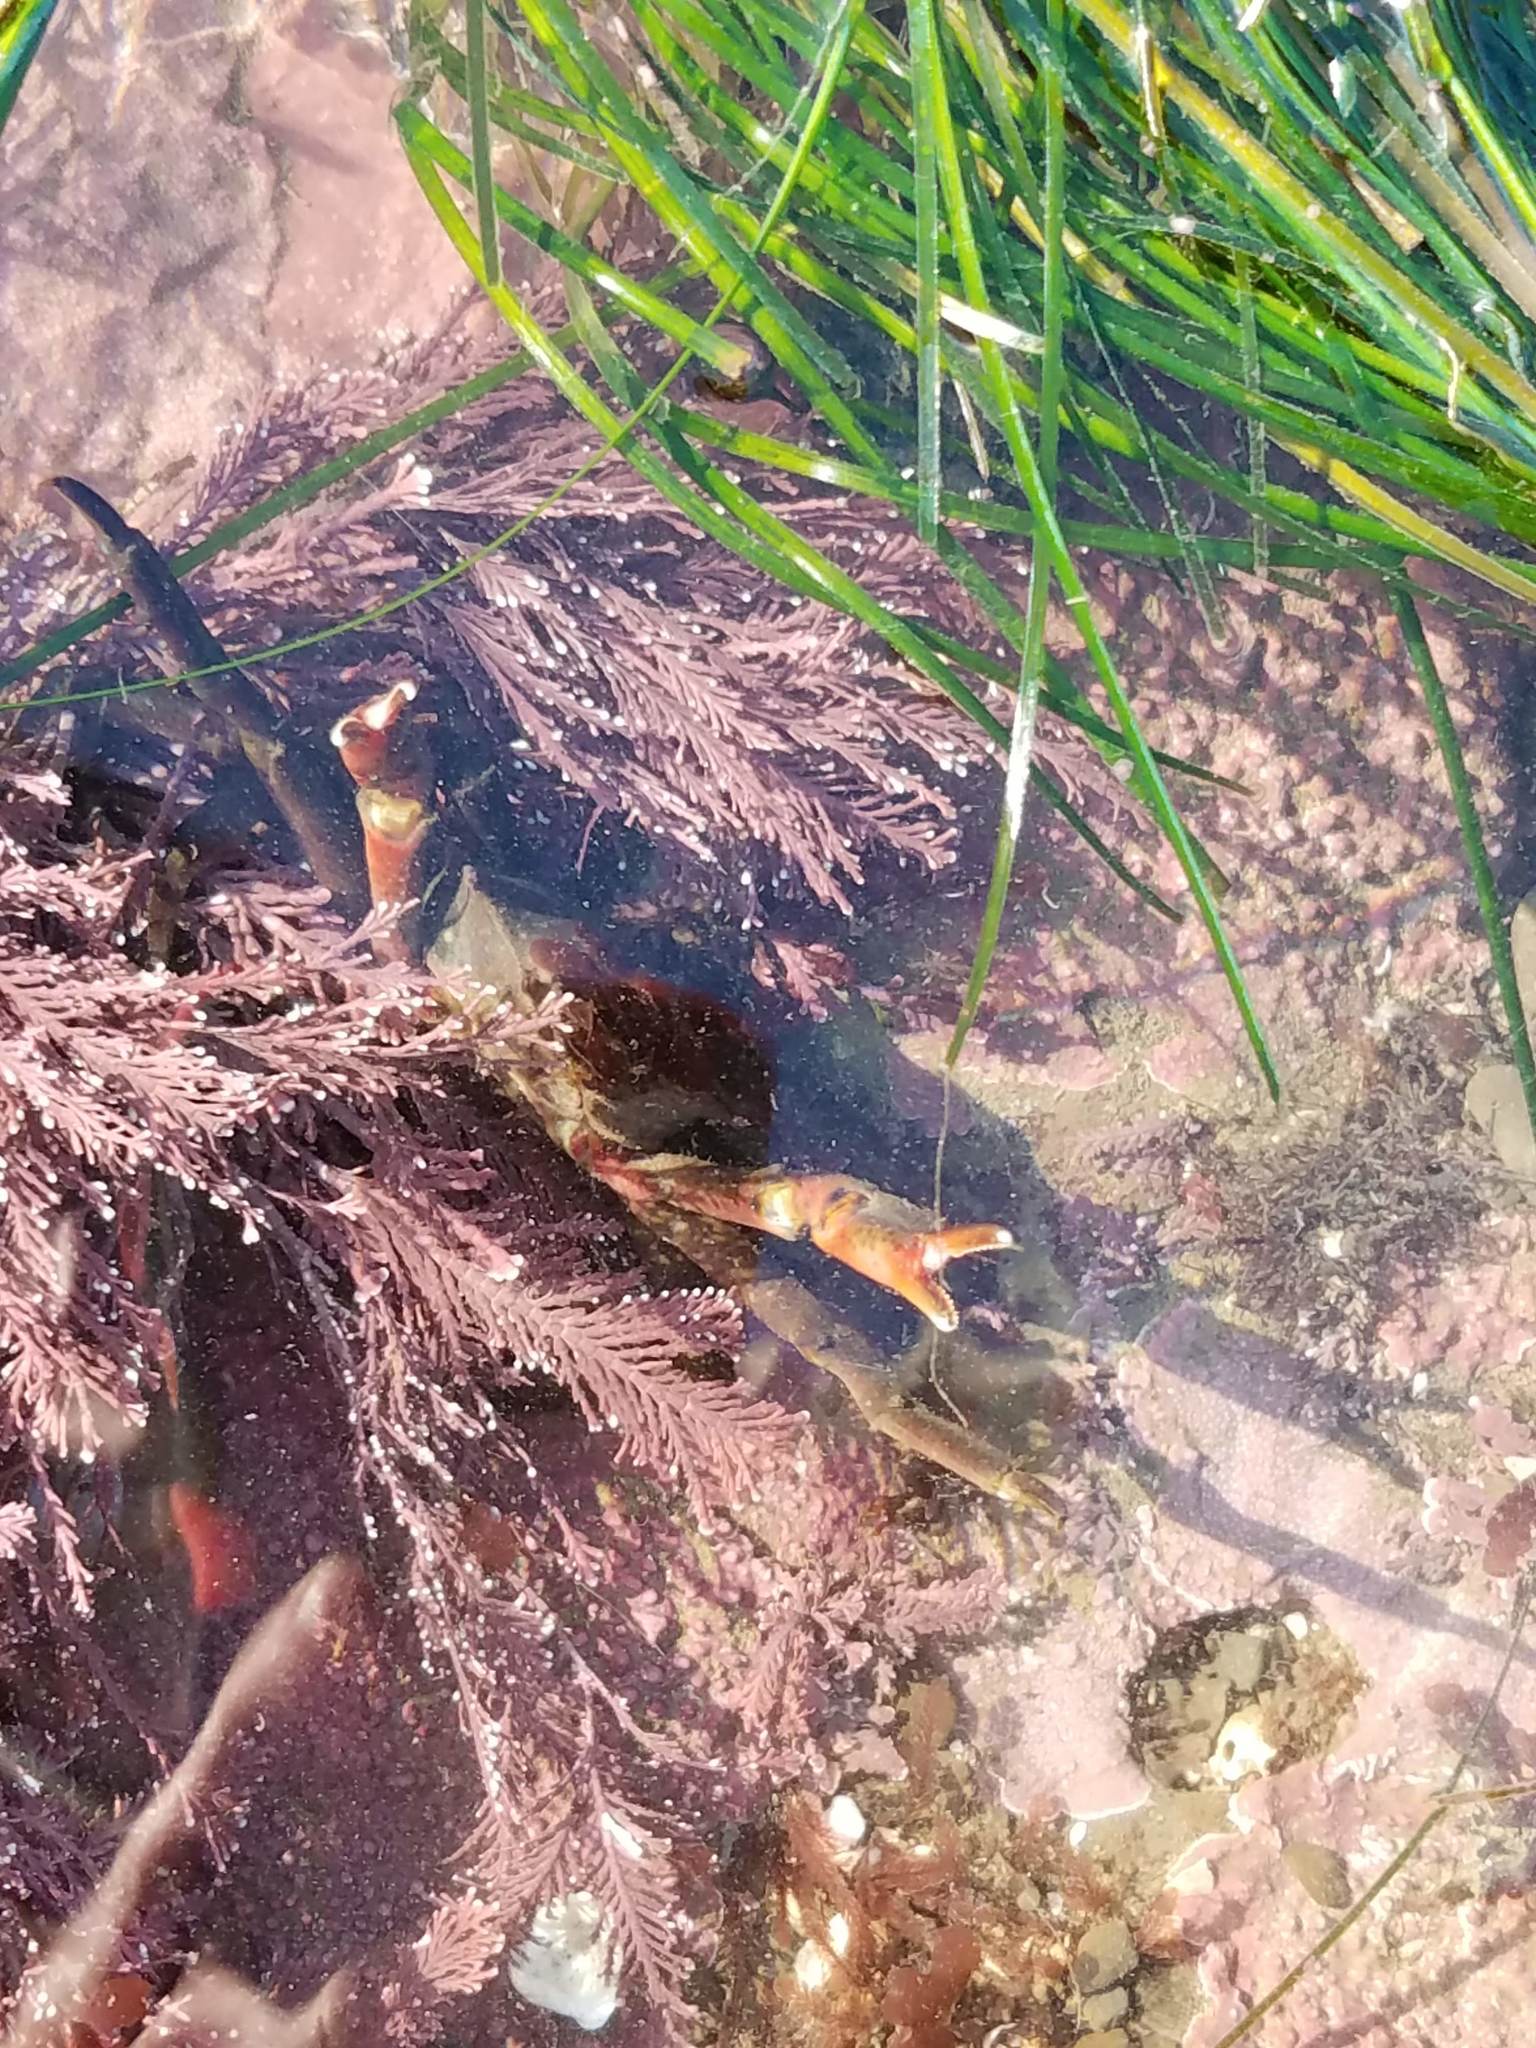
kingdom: Animalia
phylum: Arthropoda
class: Malacostraca
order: Decapoda
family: Epialtidae
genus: Pugettia
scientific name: Pugettia producta
